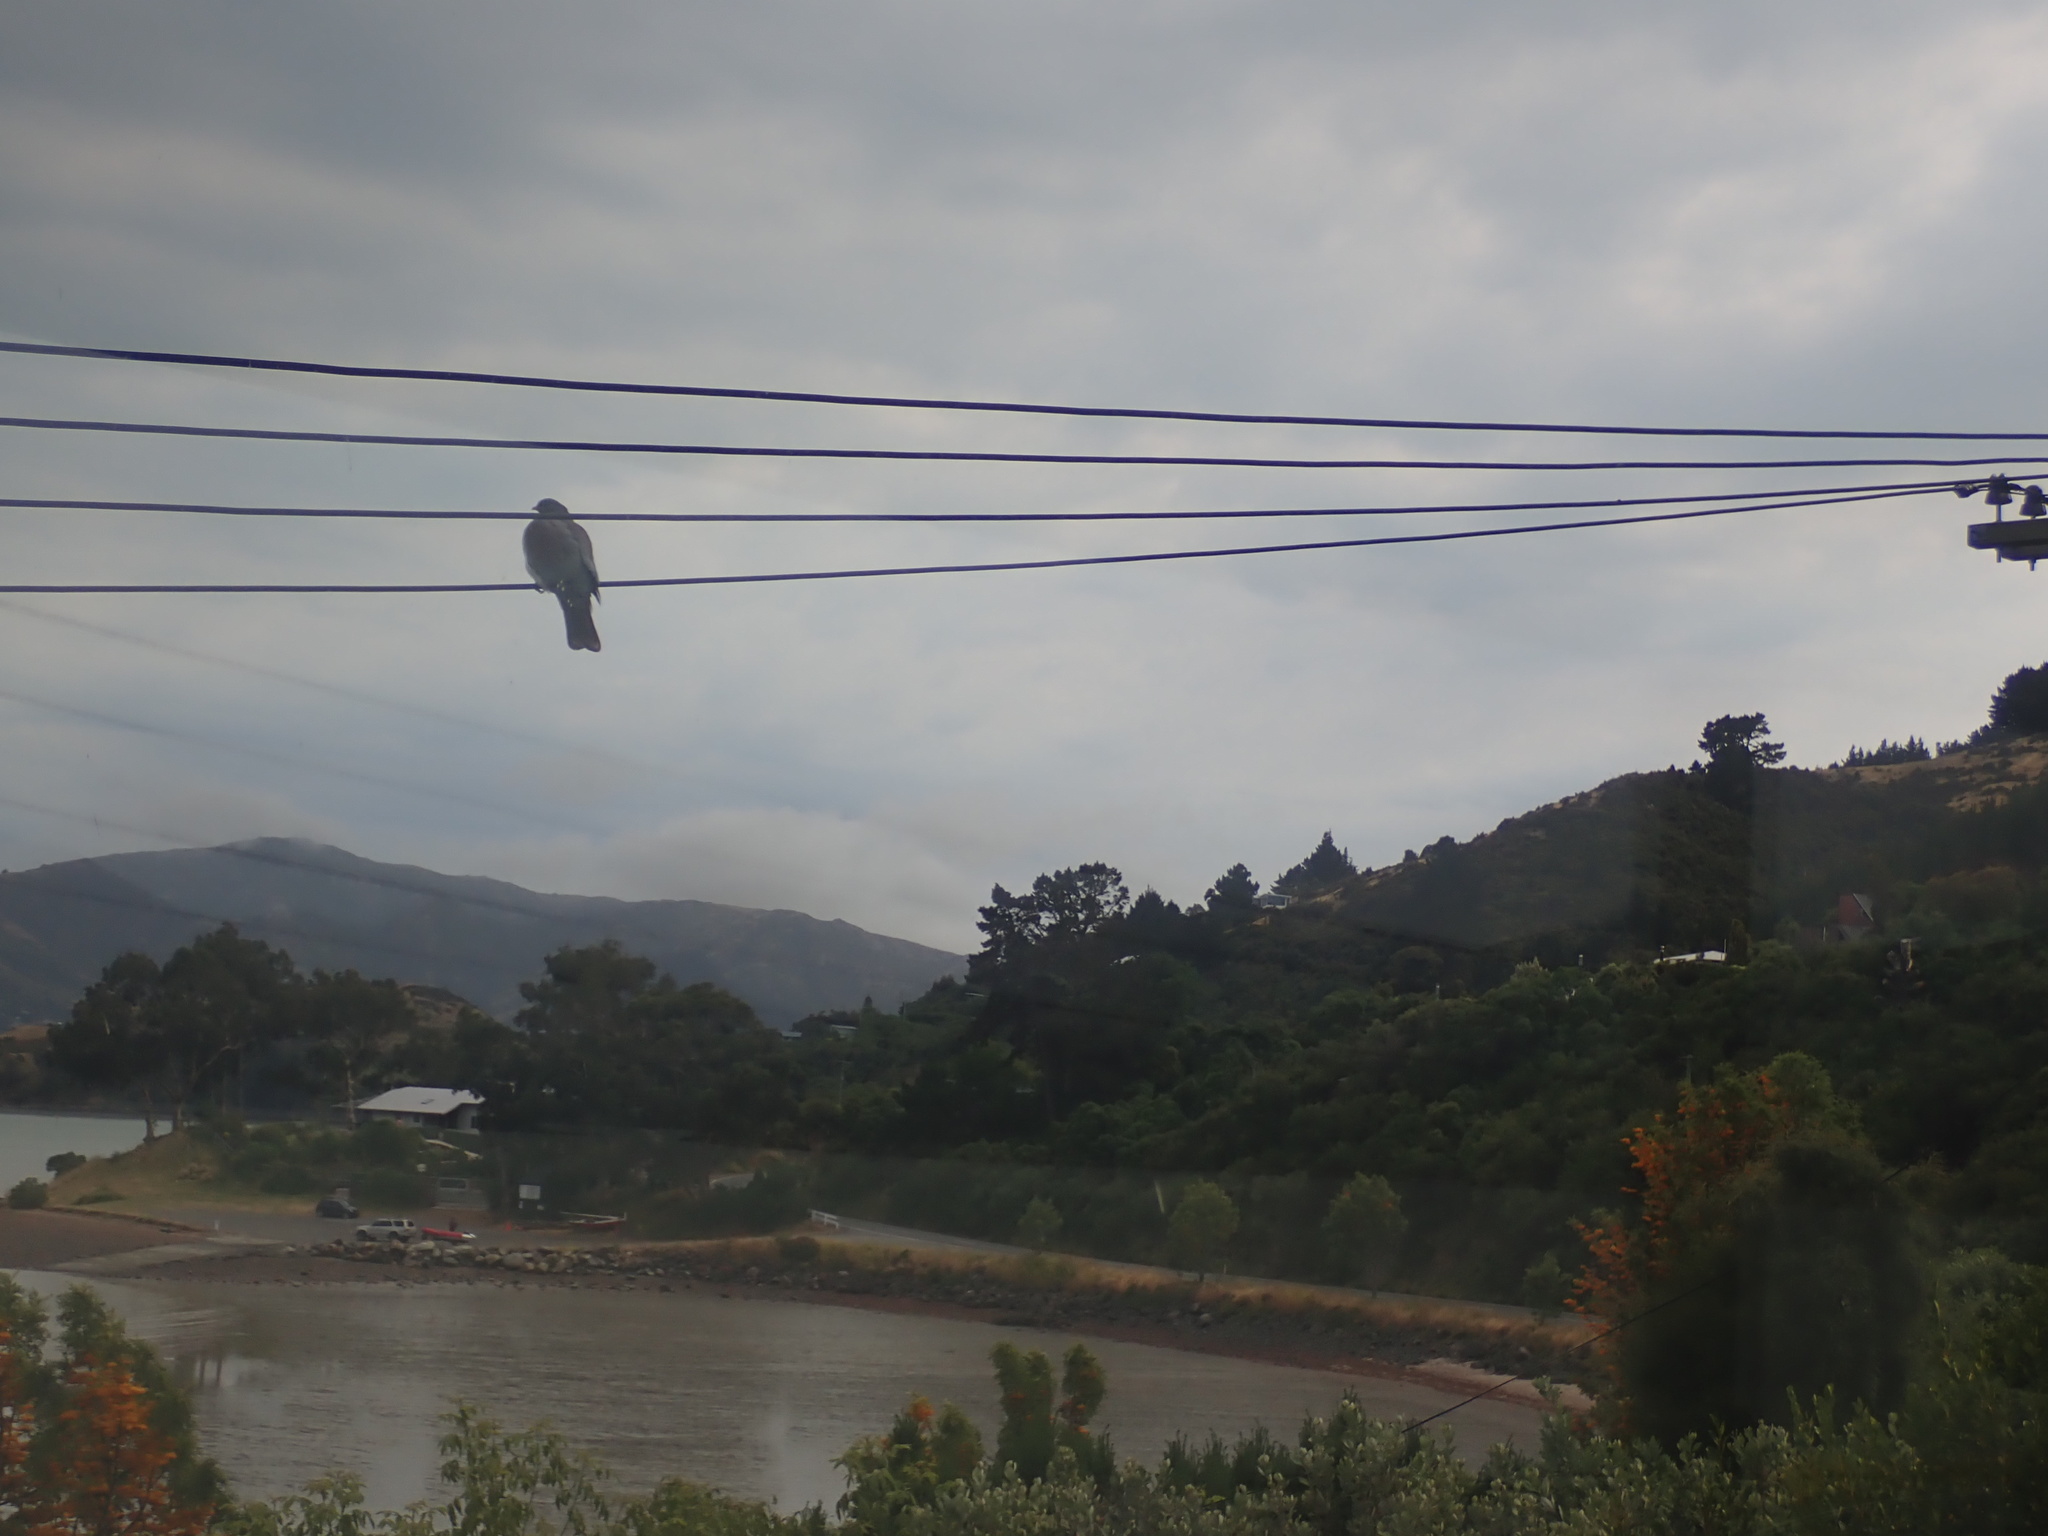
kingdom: Animalia
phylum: Chordata
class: Aves
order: Columbiformes
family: Columbidae
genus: Hemiphaga
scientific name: Hemiphaga novaeseelandiae
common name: New zealand pigeon
